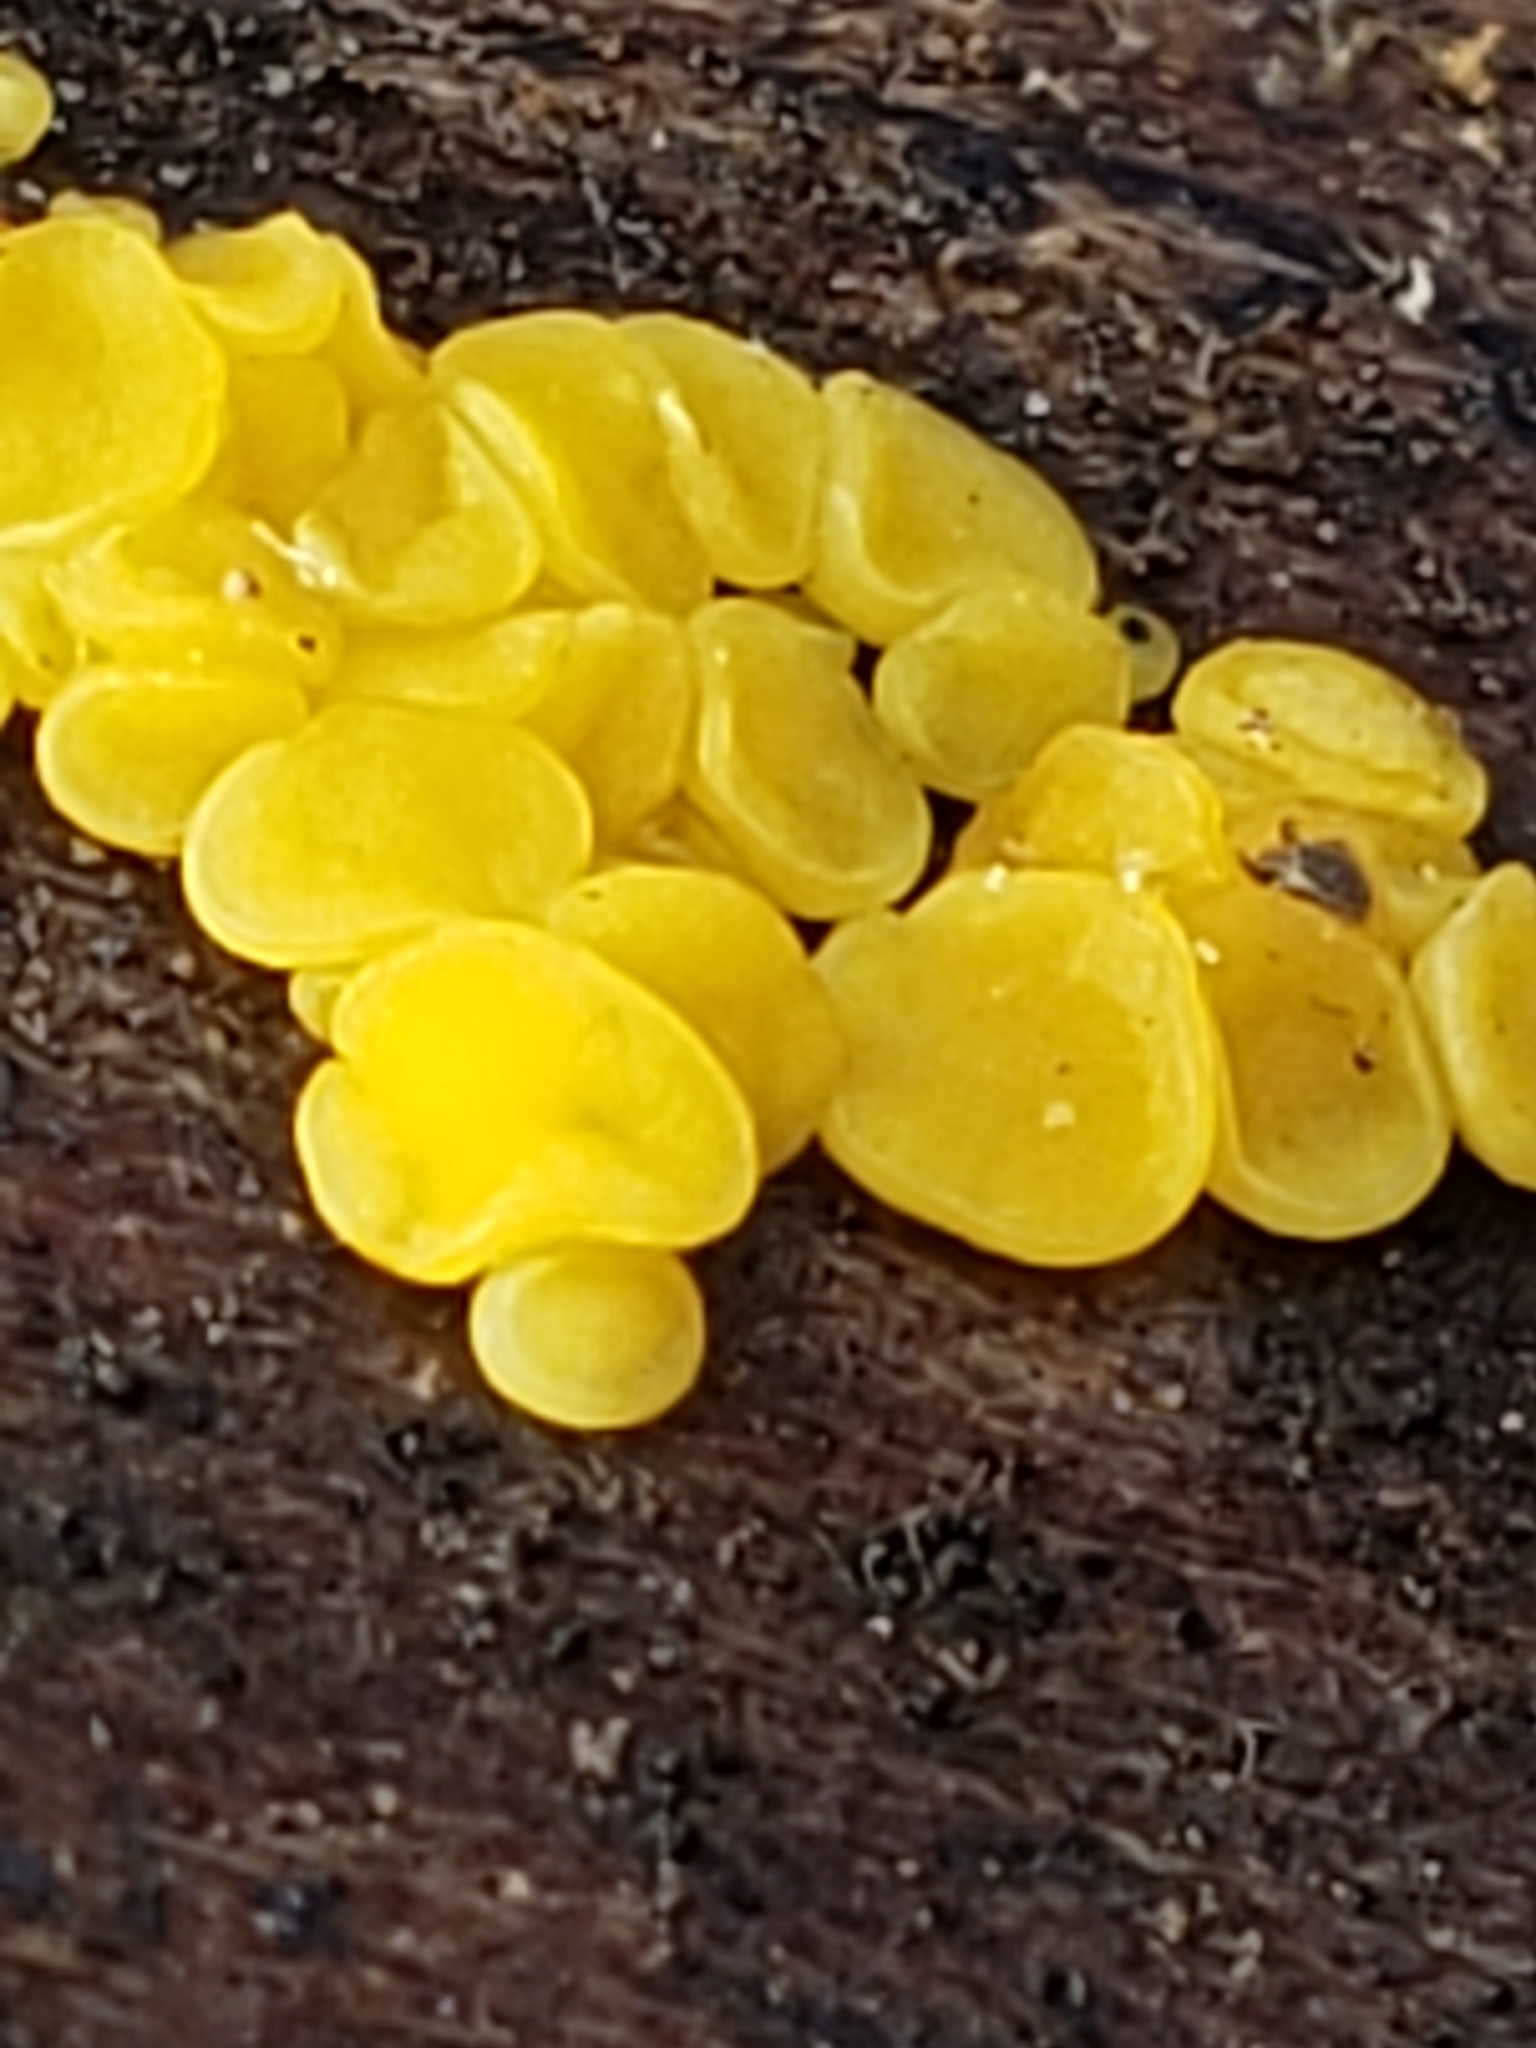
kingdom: Fungi
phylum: Ascomycota
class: Leotiomycetes
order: Helotiales
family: Pezizellaceae
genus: Calycina
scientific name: Calycina citrina
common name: Yellow fairy cups
